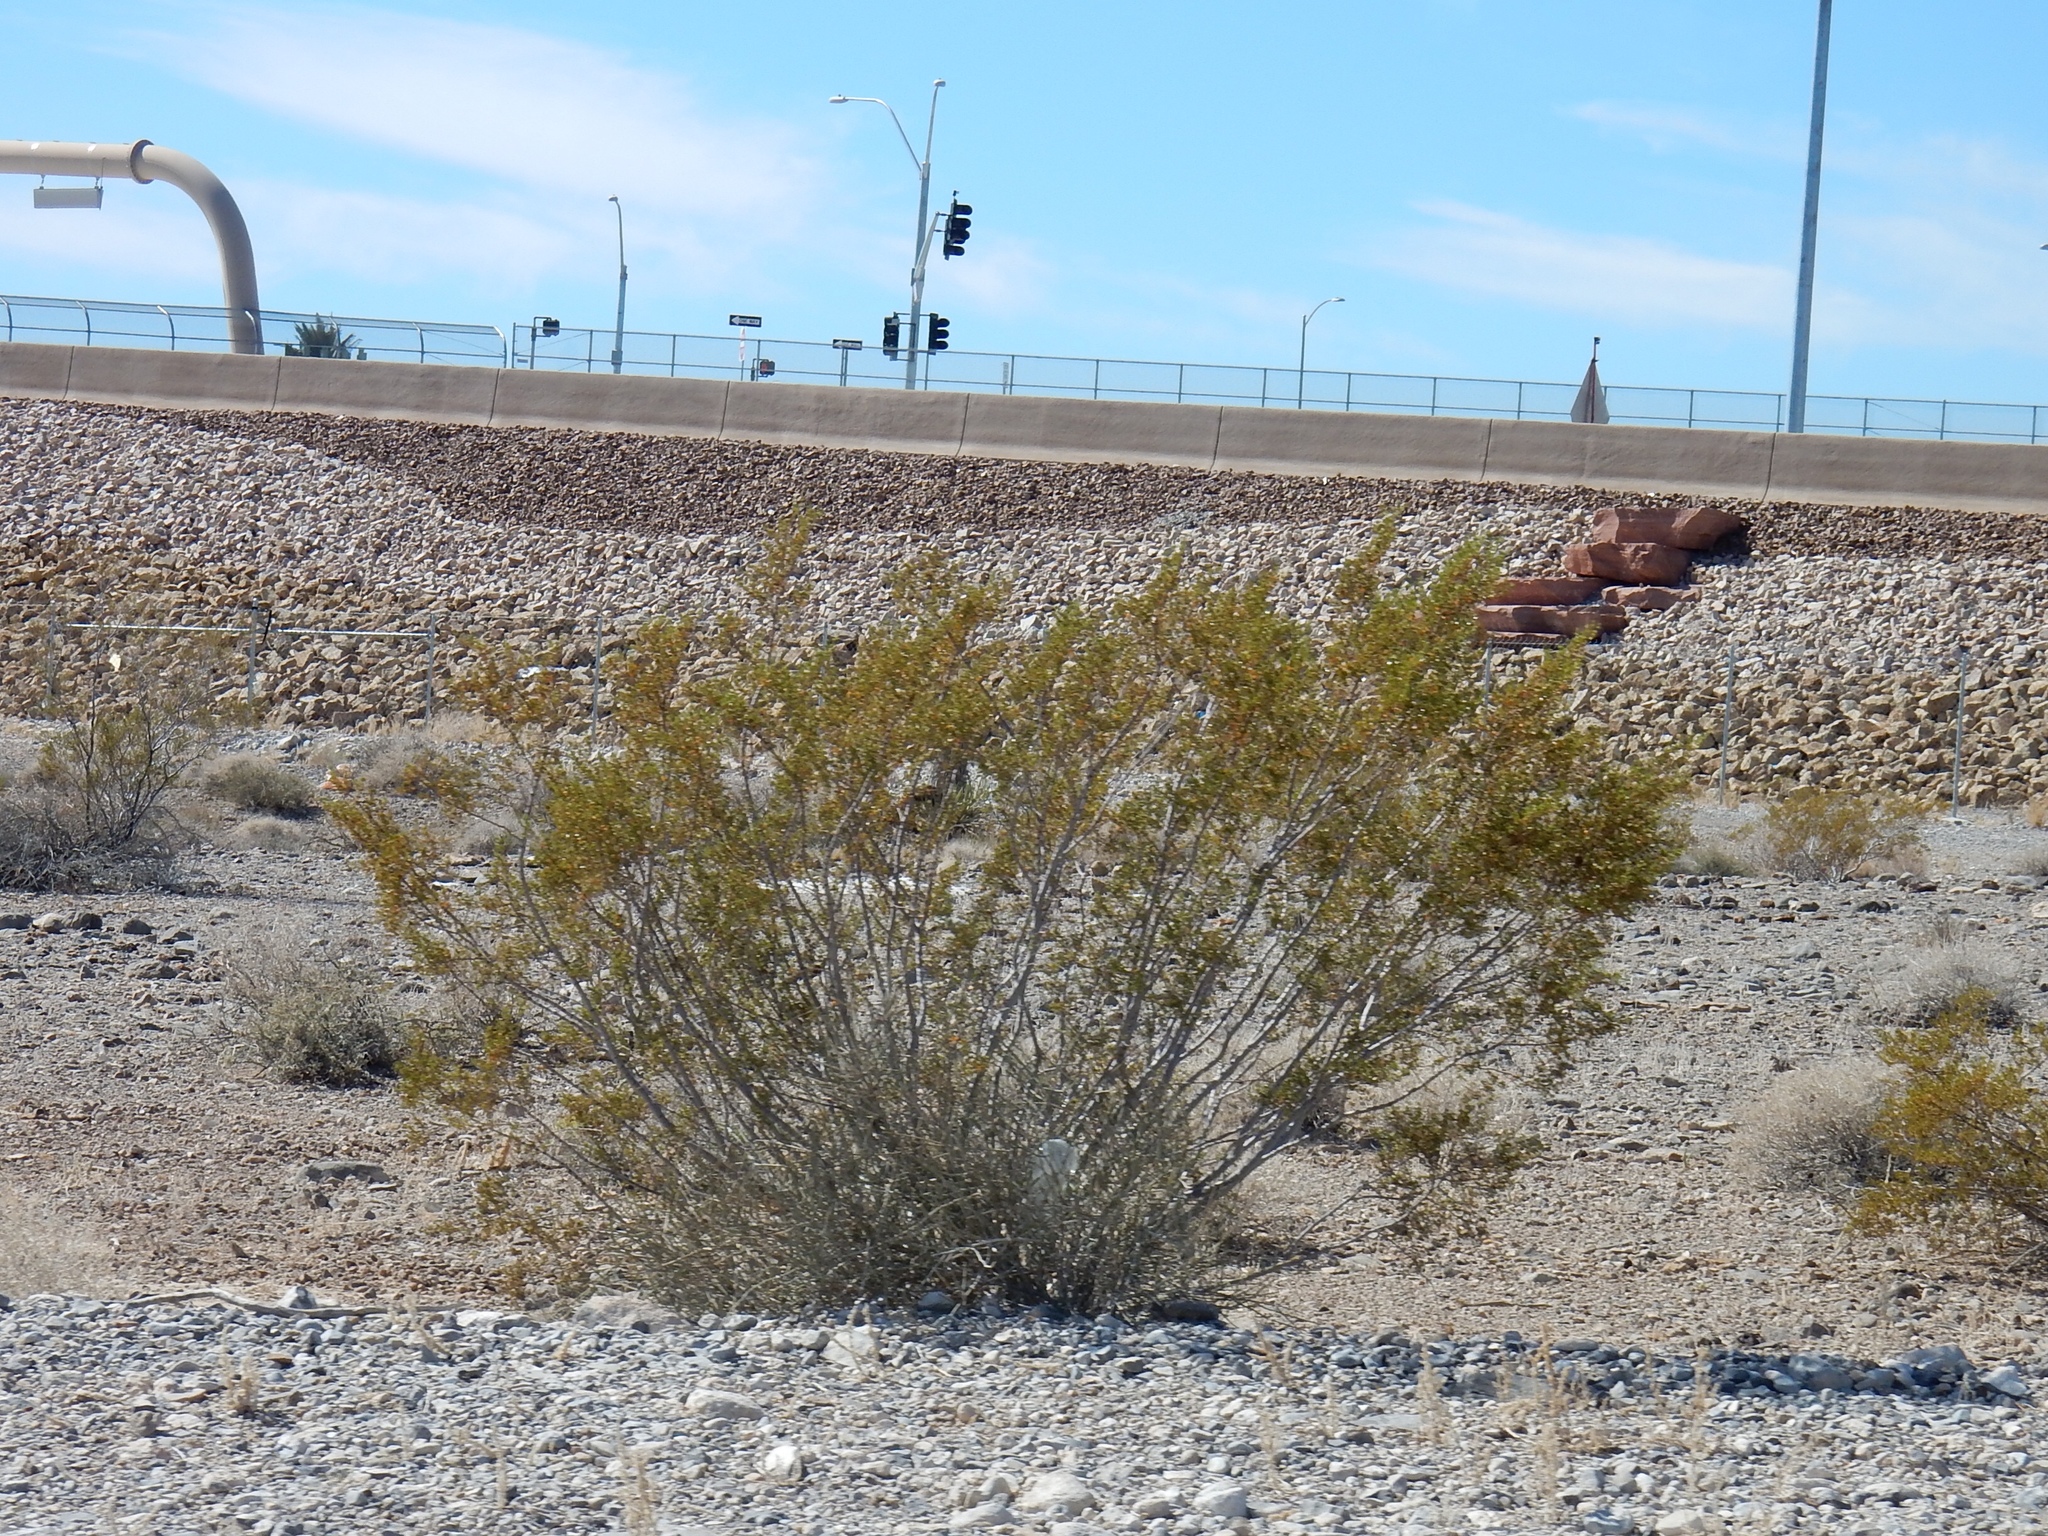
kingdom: Plantae
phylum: Tracheophyta
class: Magnoliopsida
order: Zygophyllales
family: Zygophyllaceae
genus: Larrea
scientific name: Larrea tridentata
